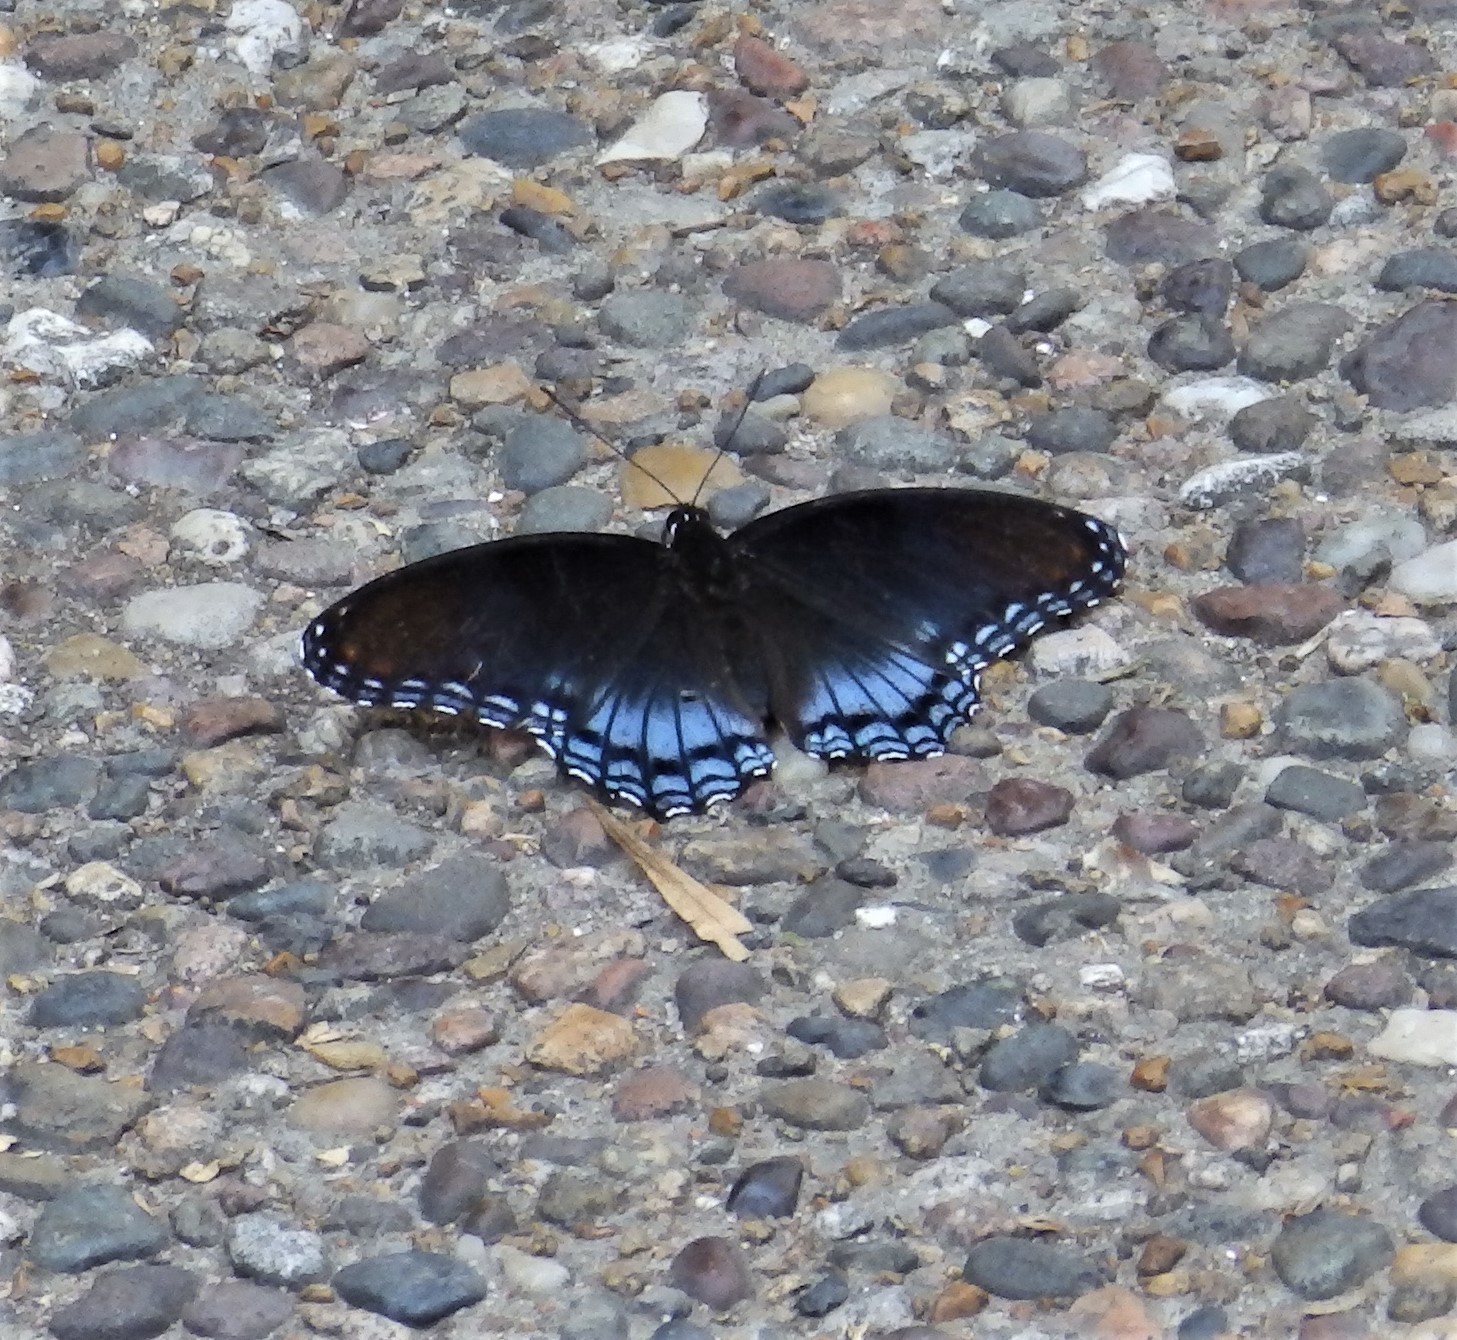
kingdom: Animalia
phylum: Arthropoda
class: Insecta
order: Lepidoptera
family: Nymphalidae
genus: Limenitis
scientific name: Limenitis astyanax
